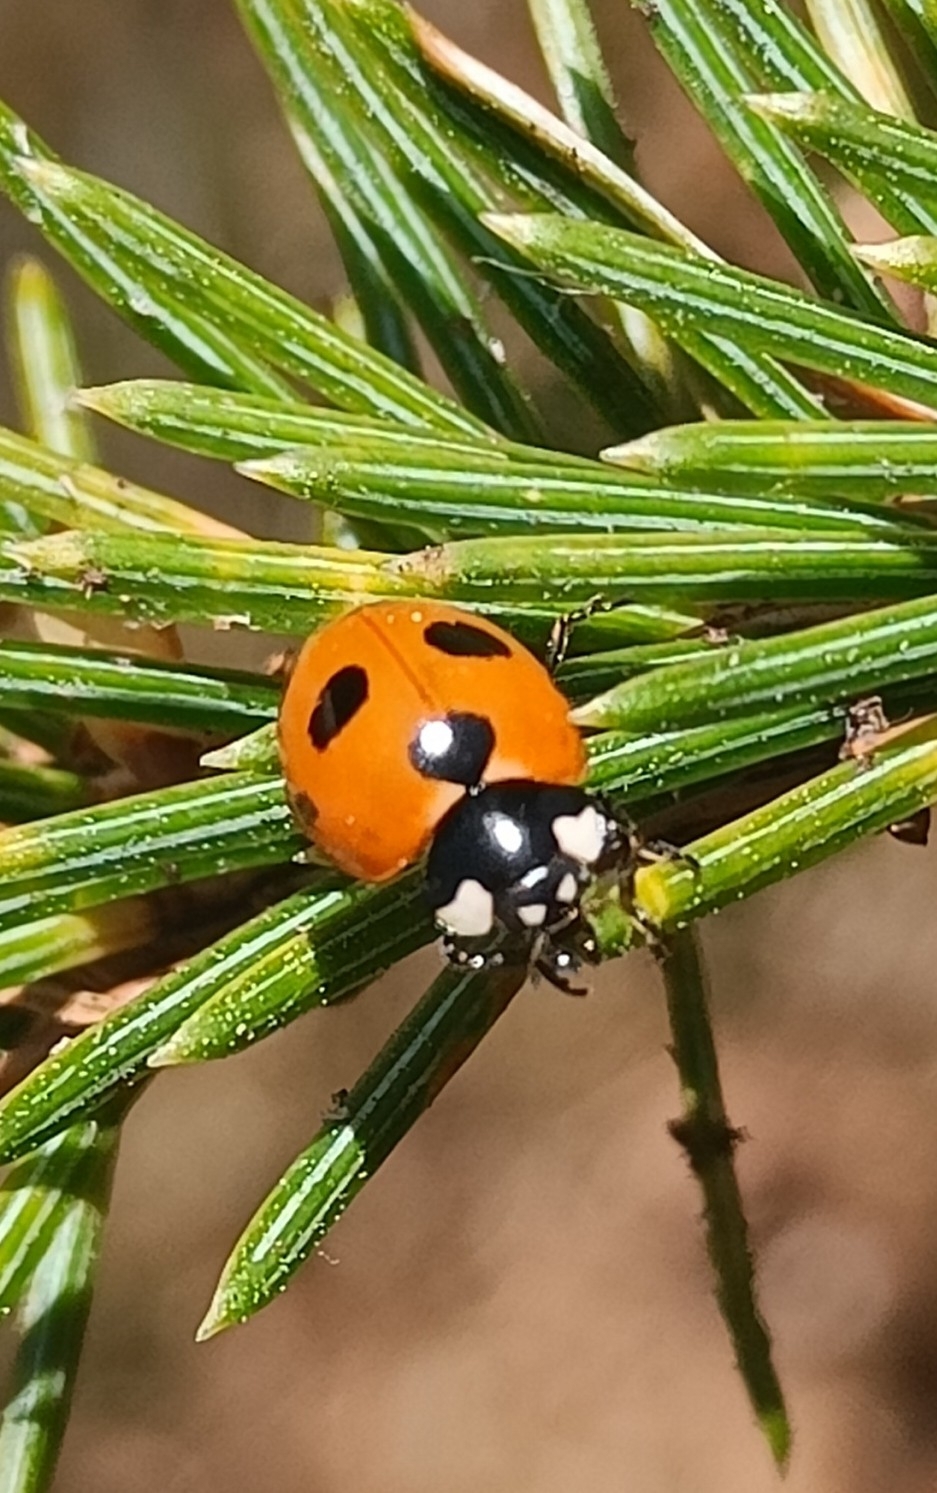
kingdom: Animalia
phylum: Arthropoda
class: Insecta
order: Coleoptera
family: Coccinellidae
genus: Coccinella
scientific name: Coccinella magnifica
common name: Scarce 7-spot ladybird
